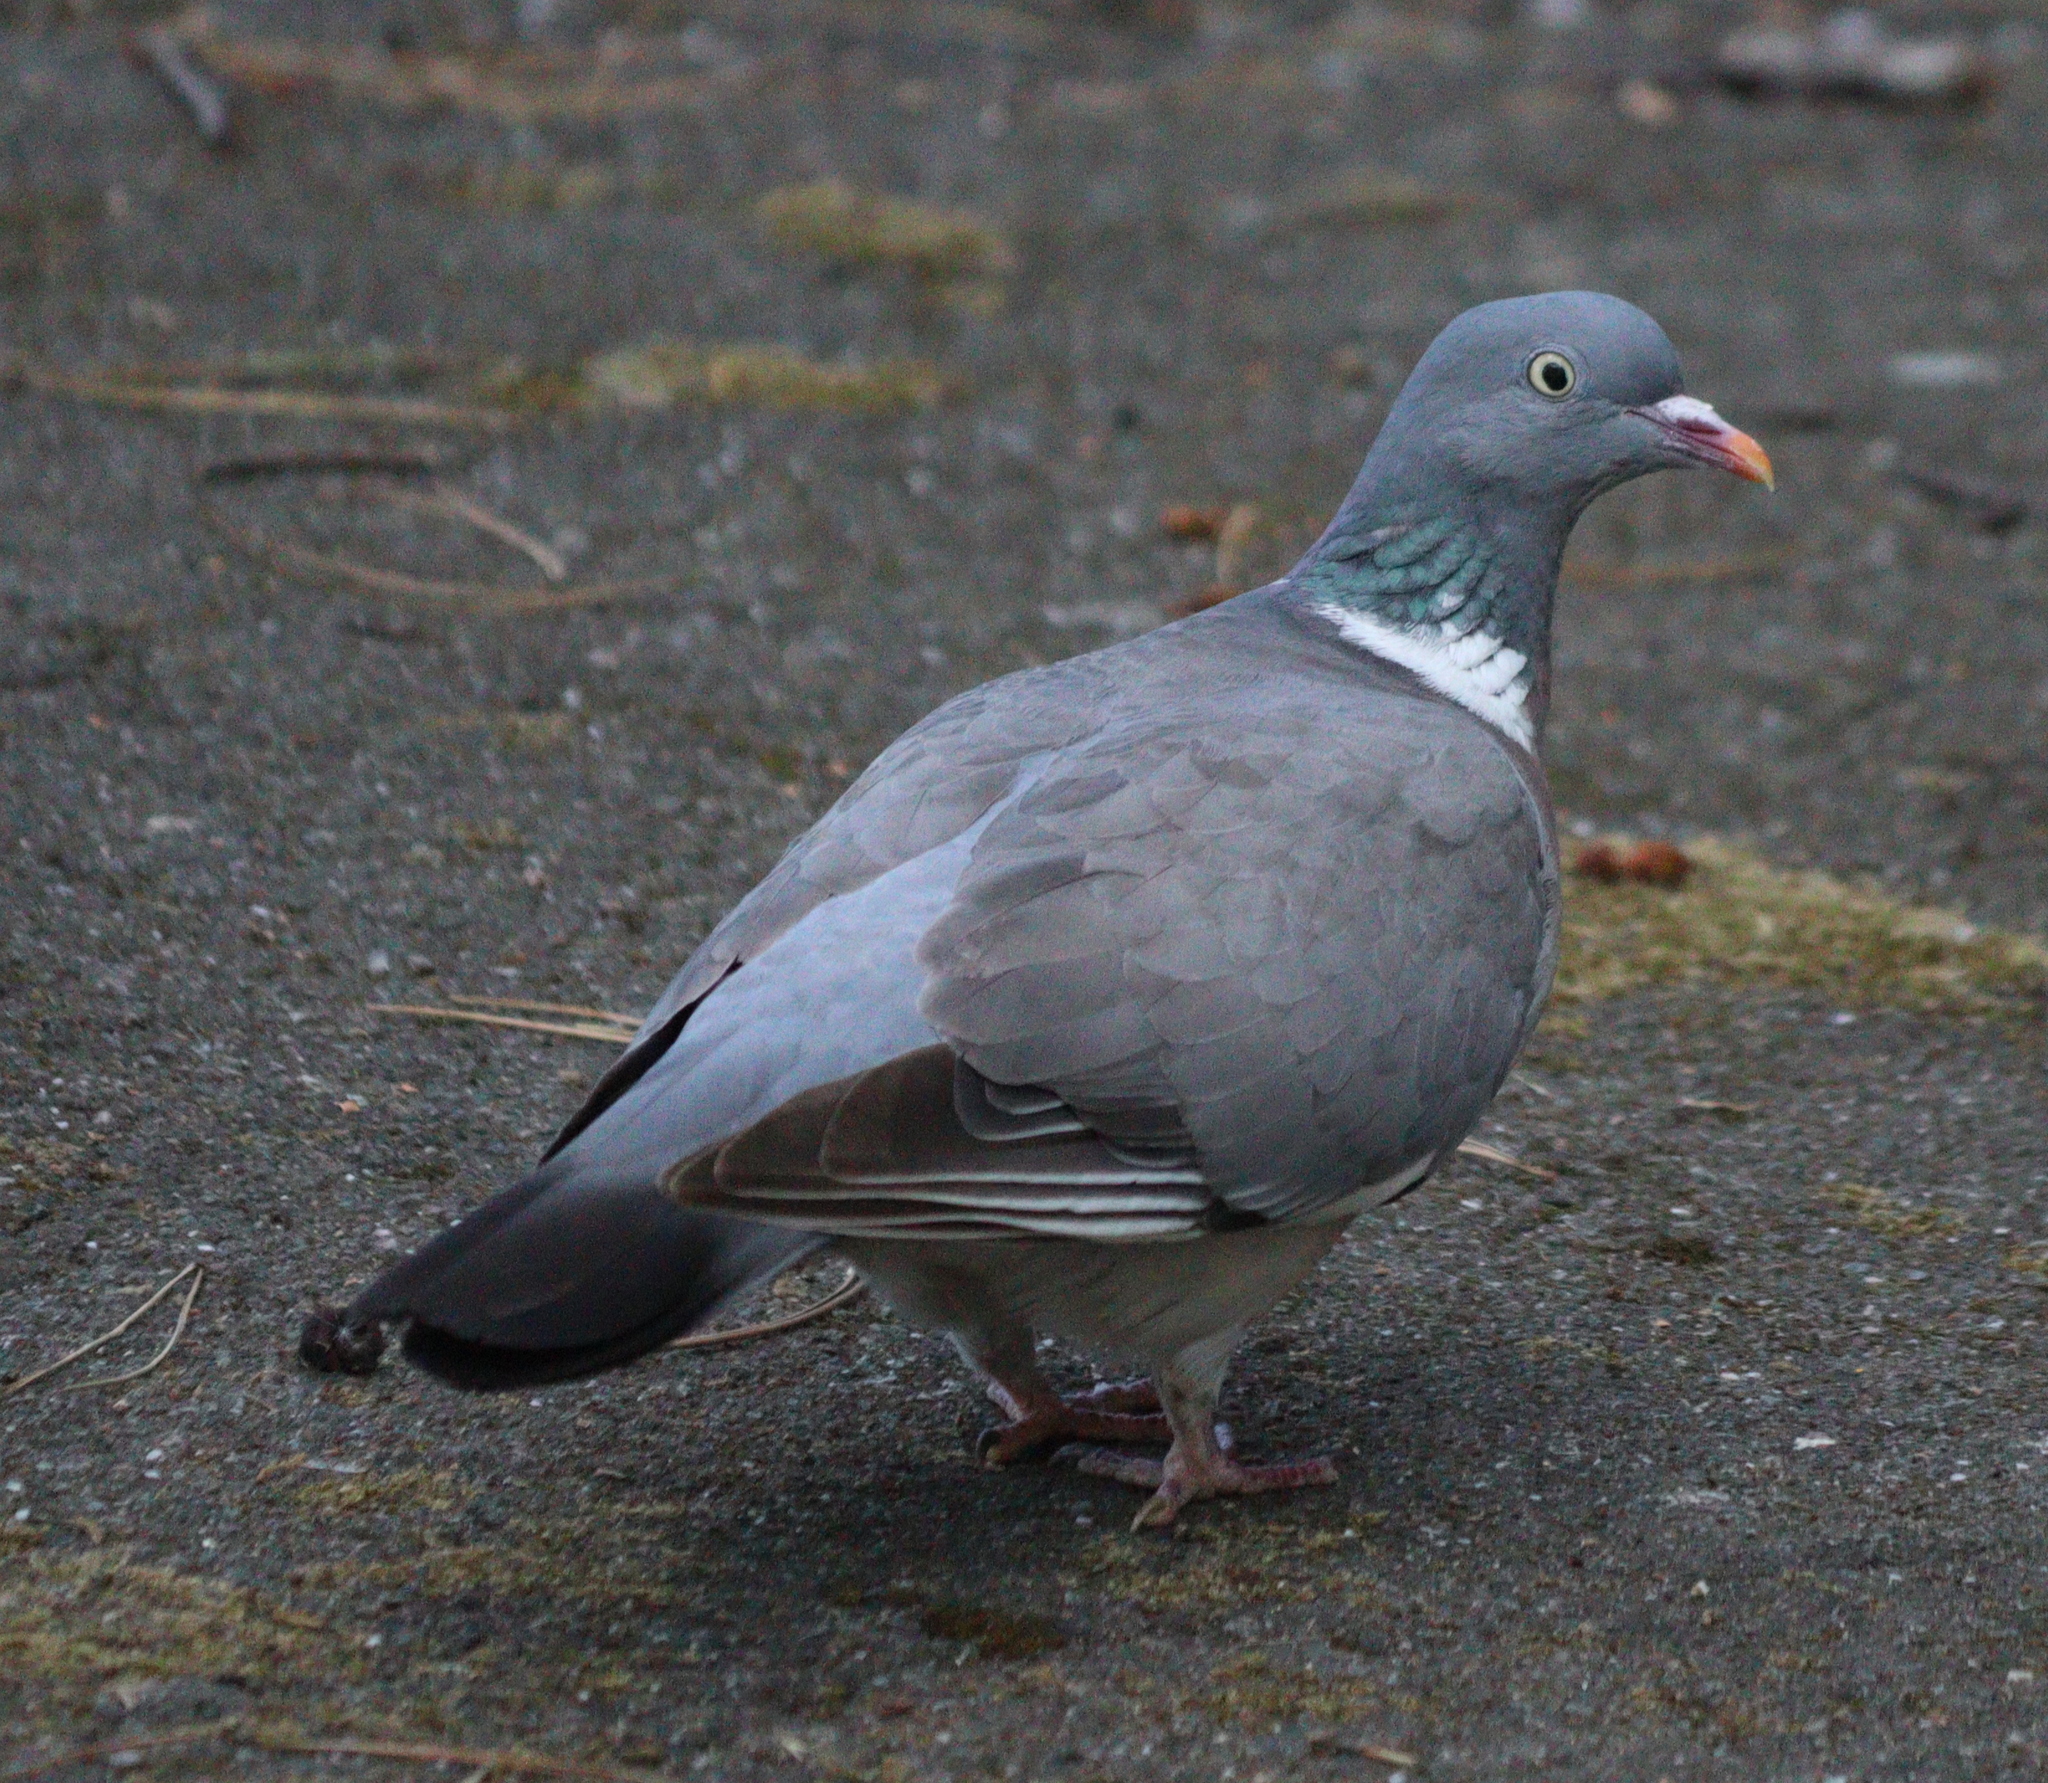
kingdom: Animalia
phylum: Chordata
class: Aves
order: Columbiformes
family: Columbidae
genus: Columba
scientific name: Columba palumbus
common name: Common wood pigeon
